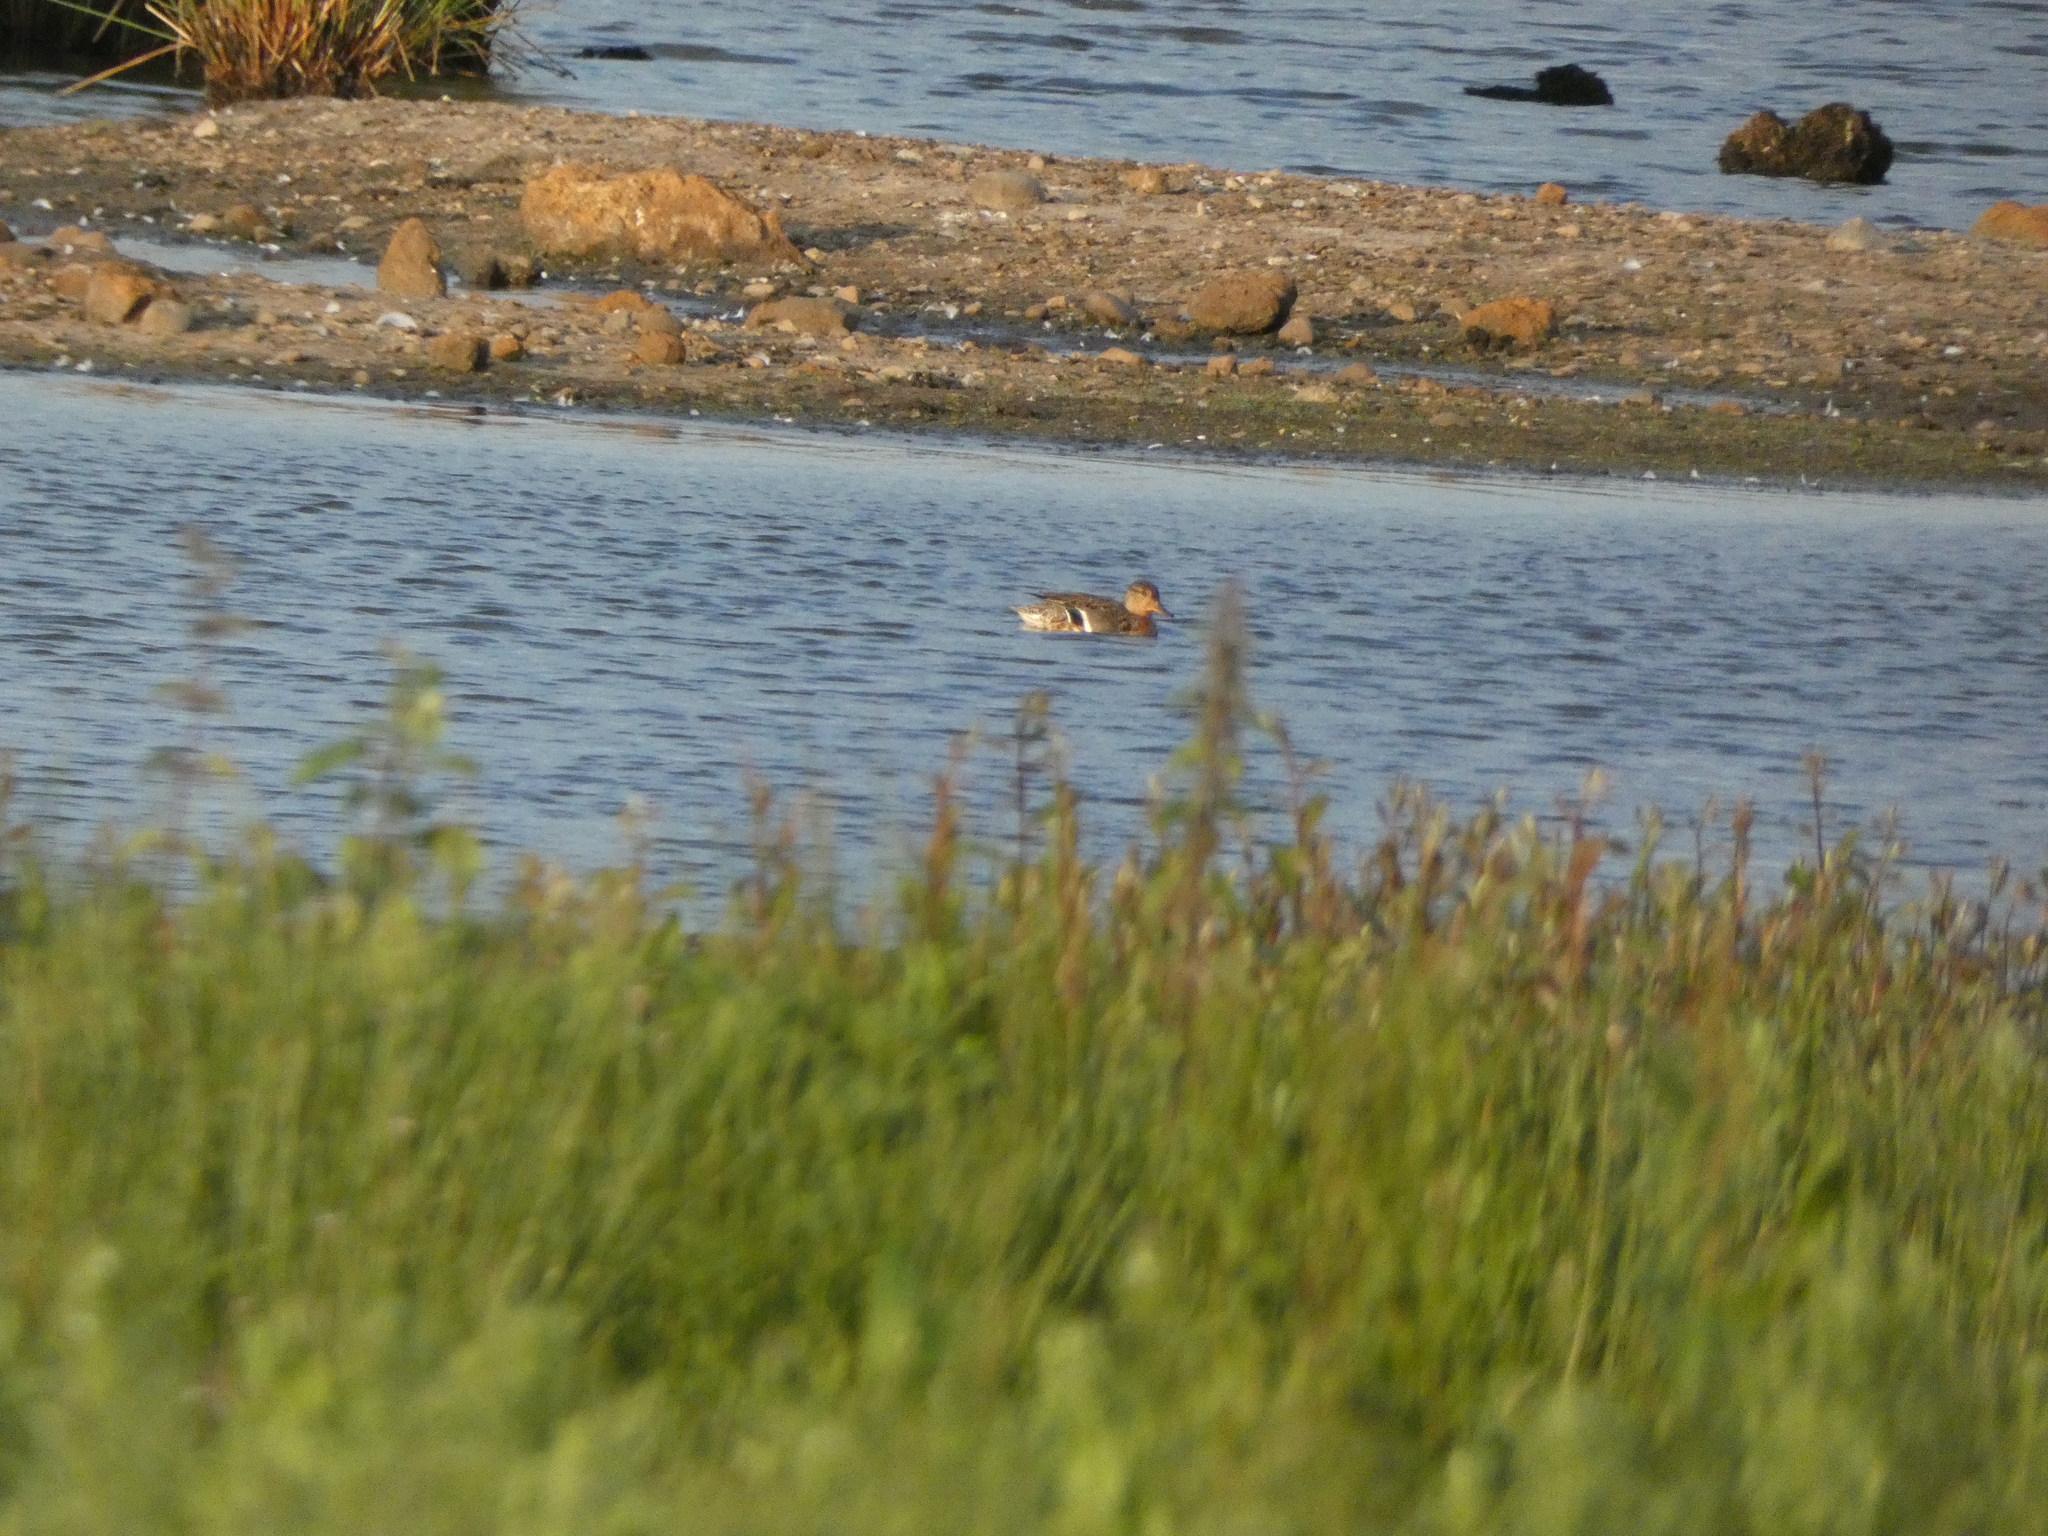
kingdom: Animalia
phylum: Chordata
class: Aves
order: Anseriformes
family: Anatidae
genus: Anas
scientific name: Anas crecca
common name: Eurasian teal
